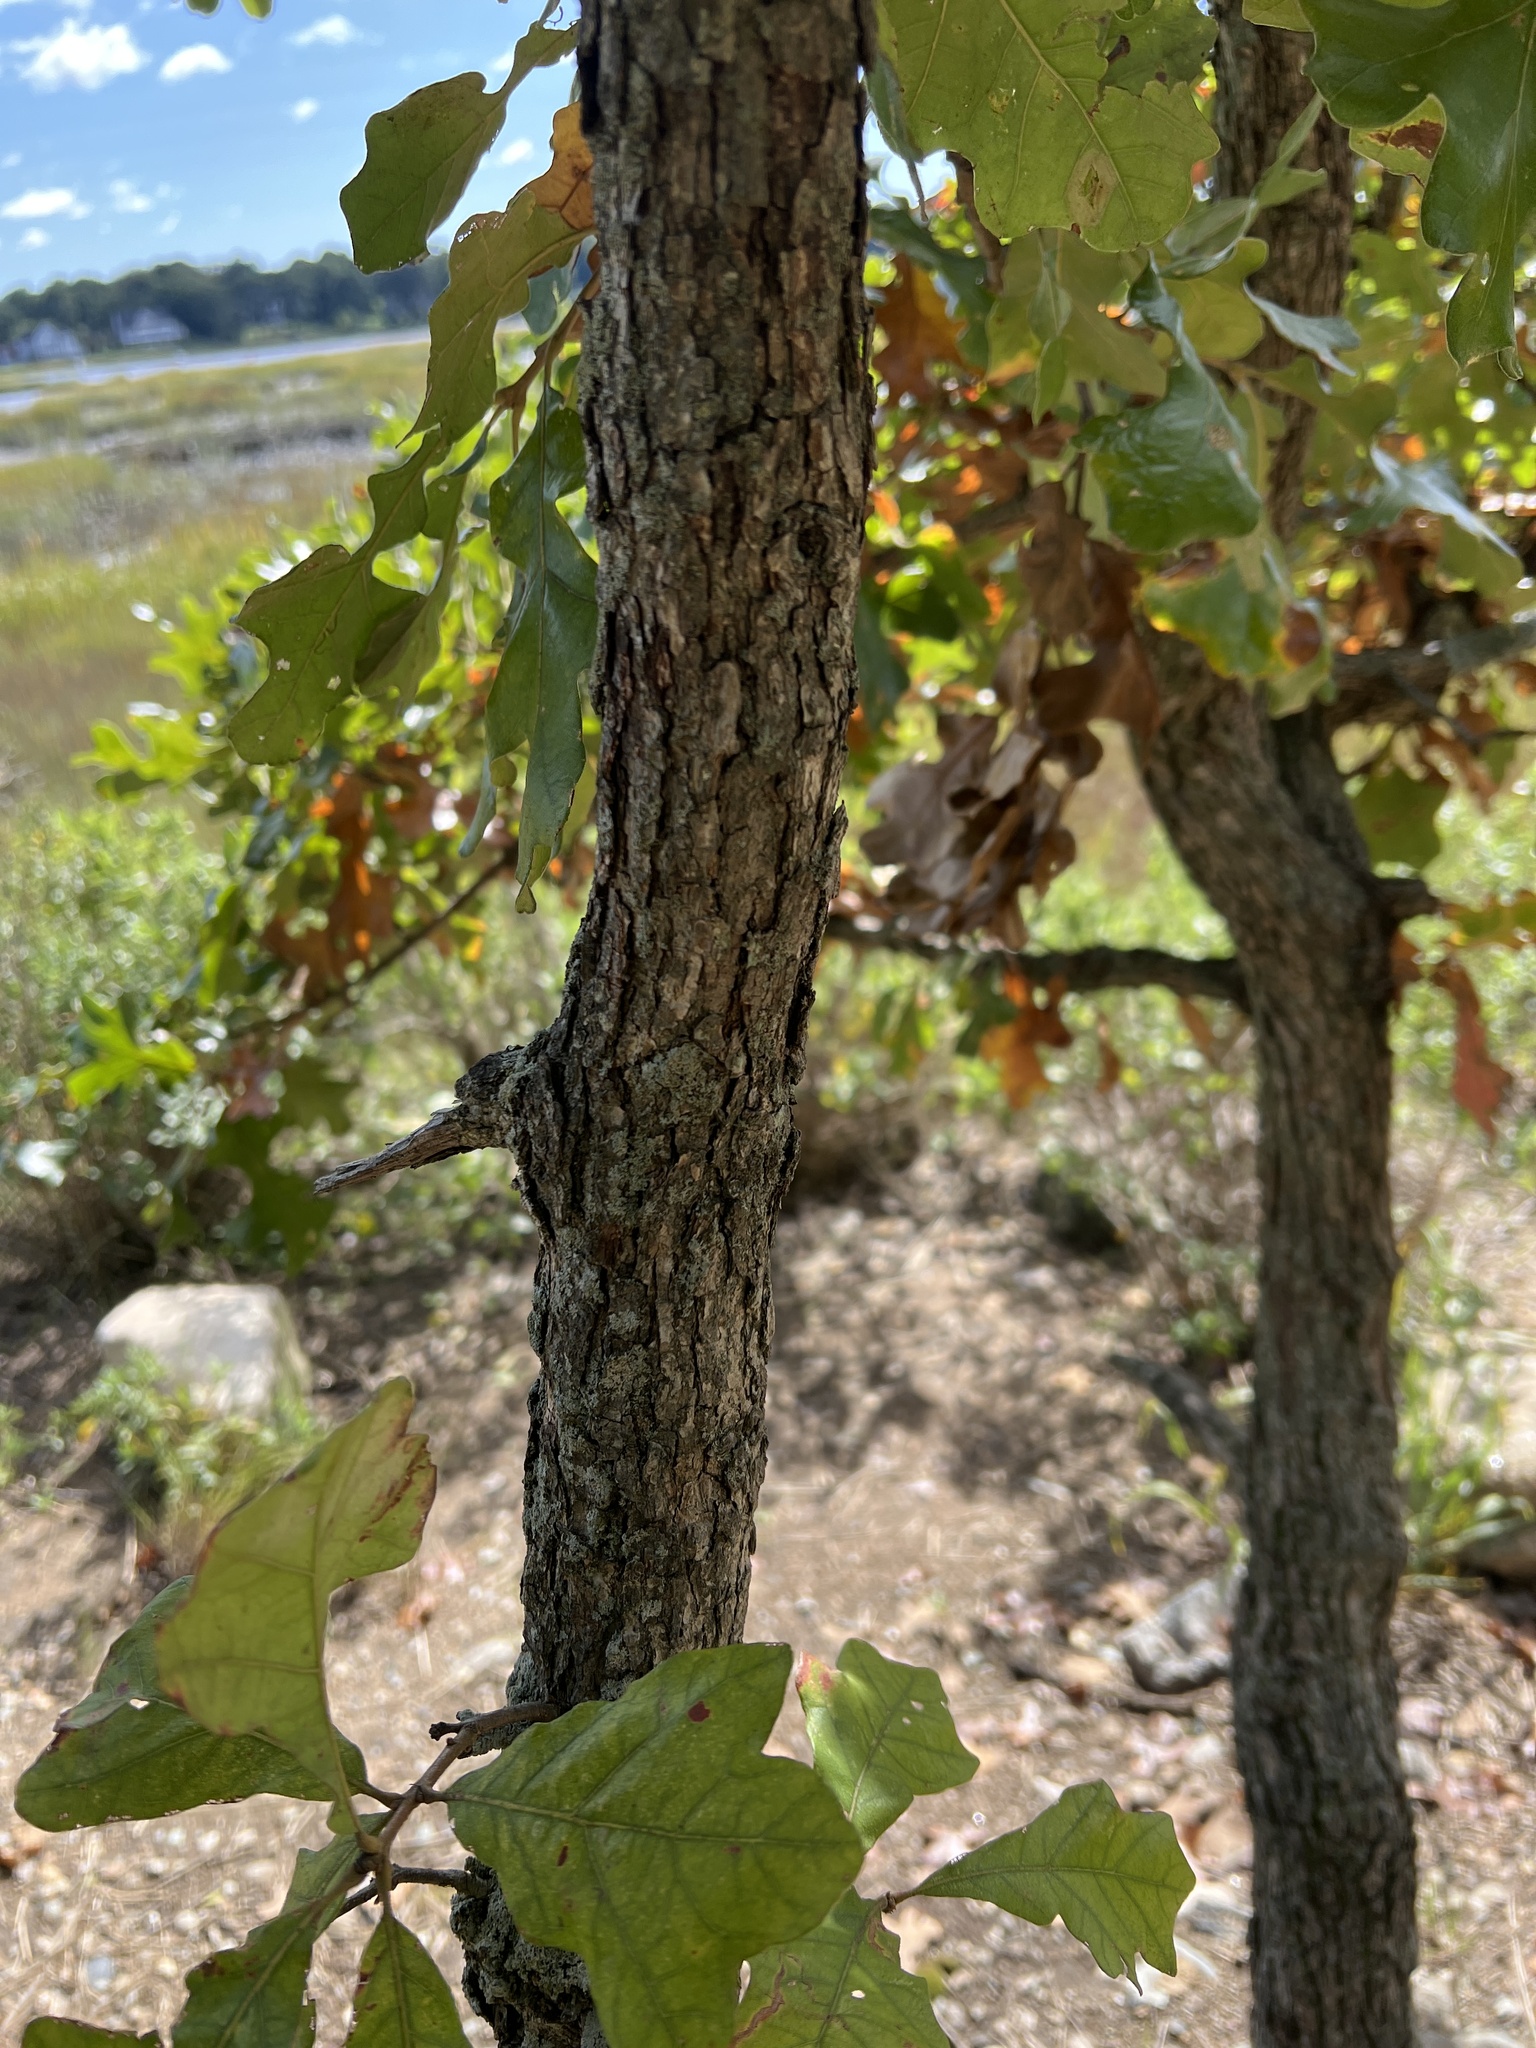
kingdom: Plantae
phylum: Tracheophyta
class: Magnoliopsida
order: Fagales
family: Fagaceae
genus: Quercus
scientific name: Quercus stellata
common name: Post oak
